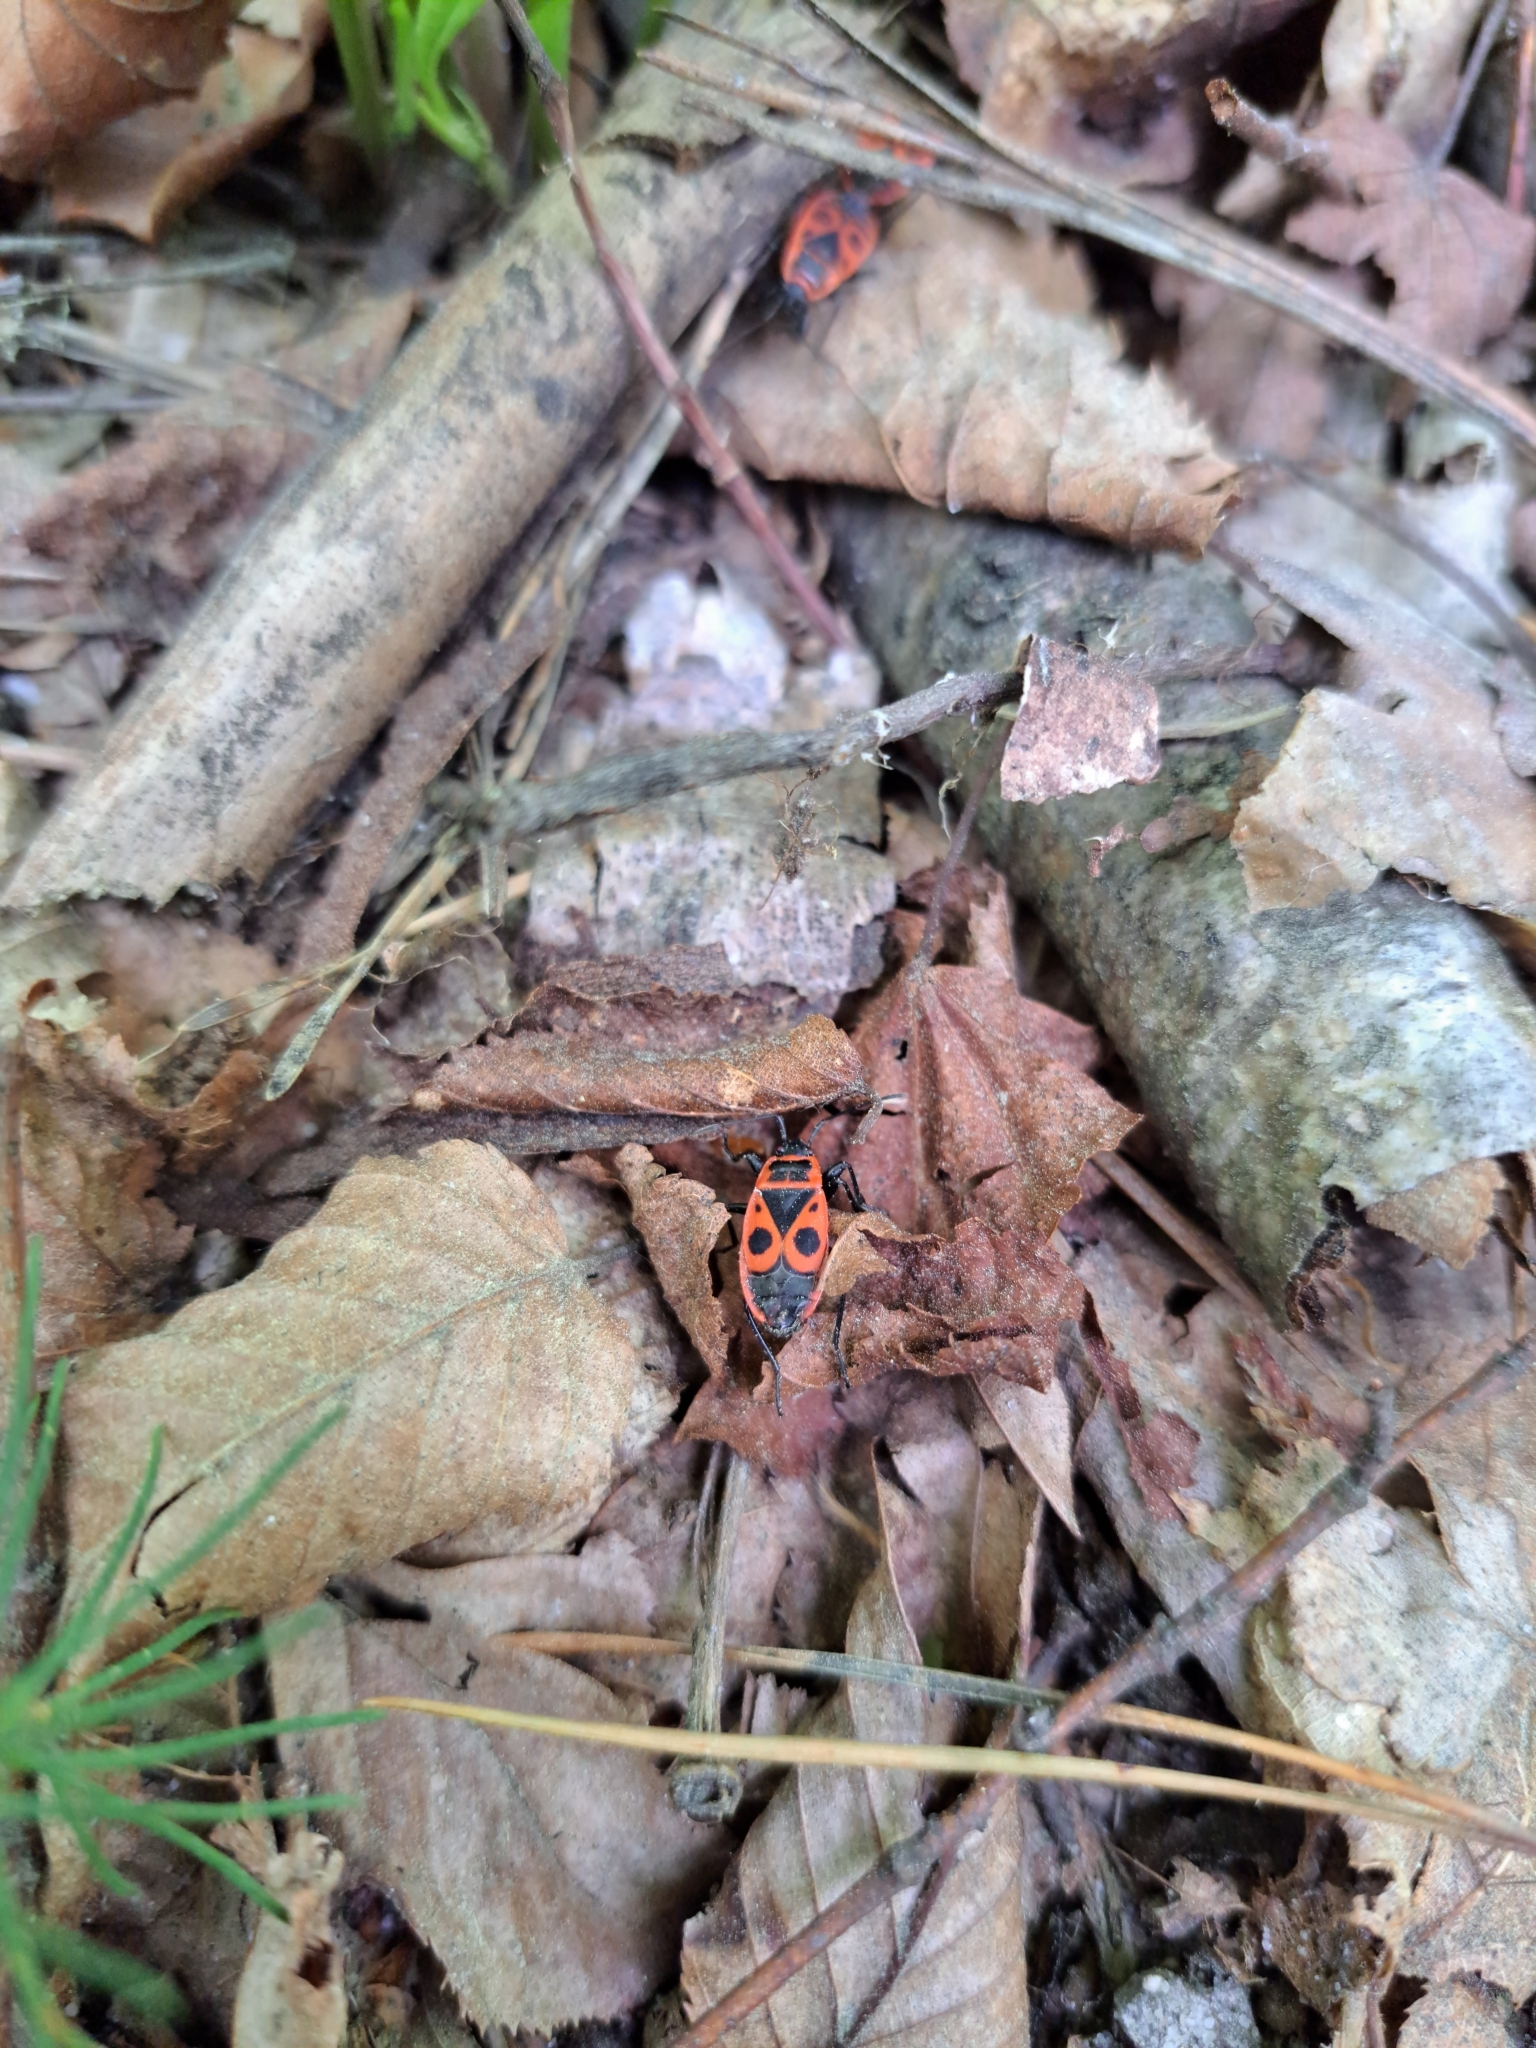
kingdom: Animalia
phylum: Arthropoda
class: Insecta
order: Hemiptera
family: Pyrrhocoridae
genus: Pyrrhocoris
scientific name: Pyrrhocoris apterus
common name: Firebug
